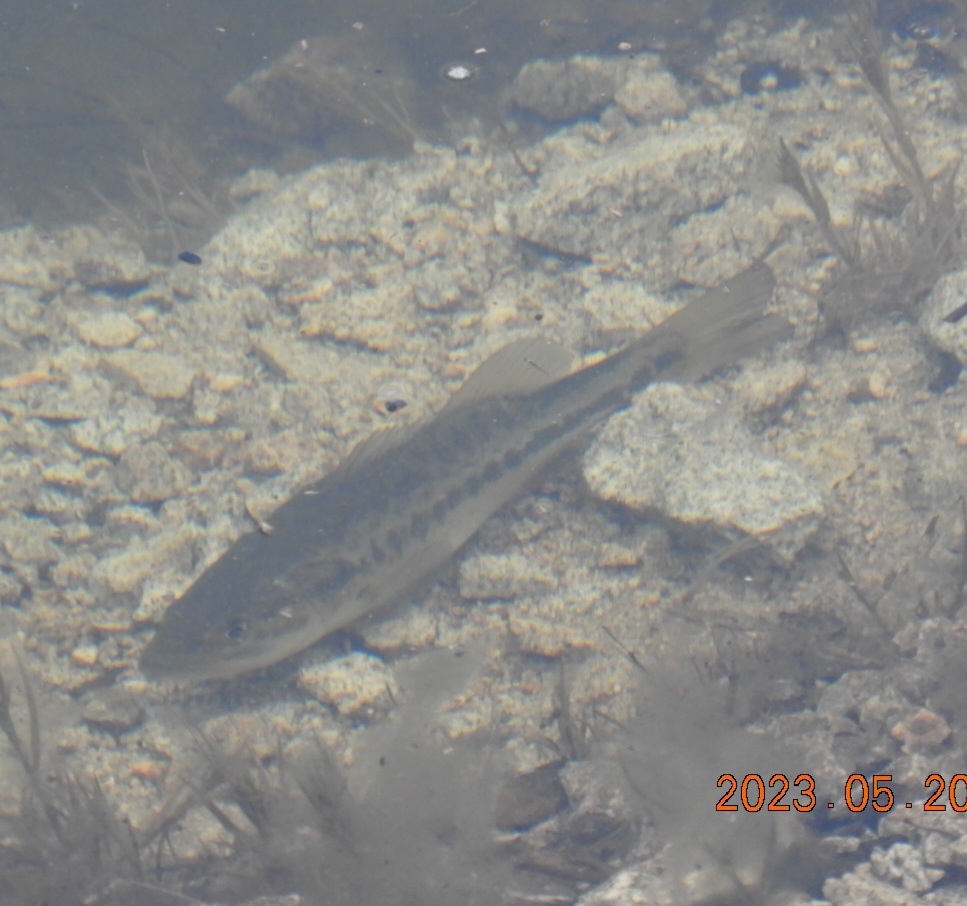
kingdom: Animalia
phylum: Chordata
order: Perciformes
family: Centrarchidae
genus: Micropterus
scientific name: Micropterus
